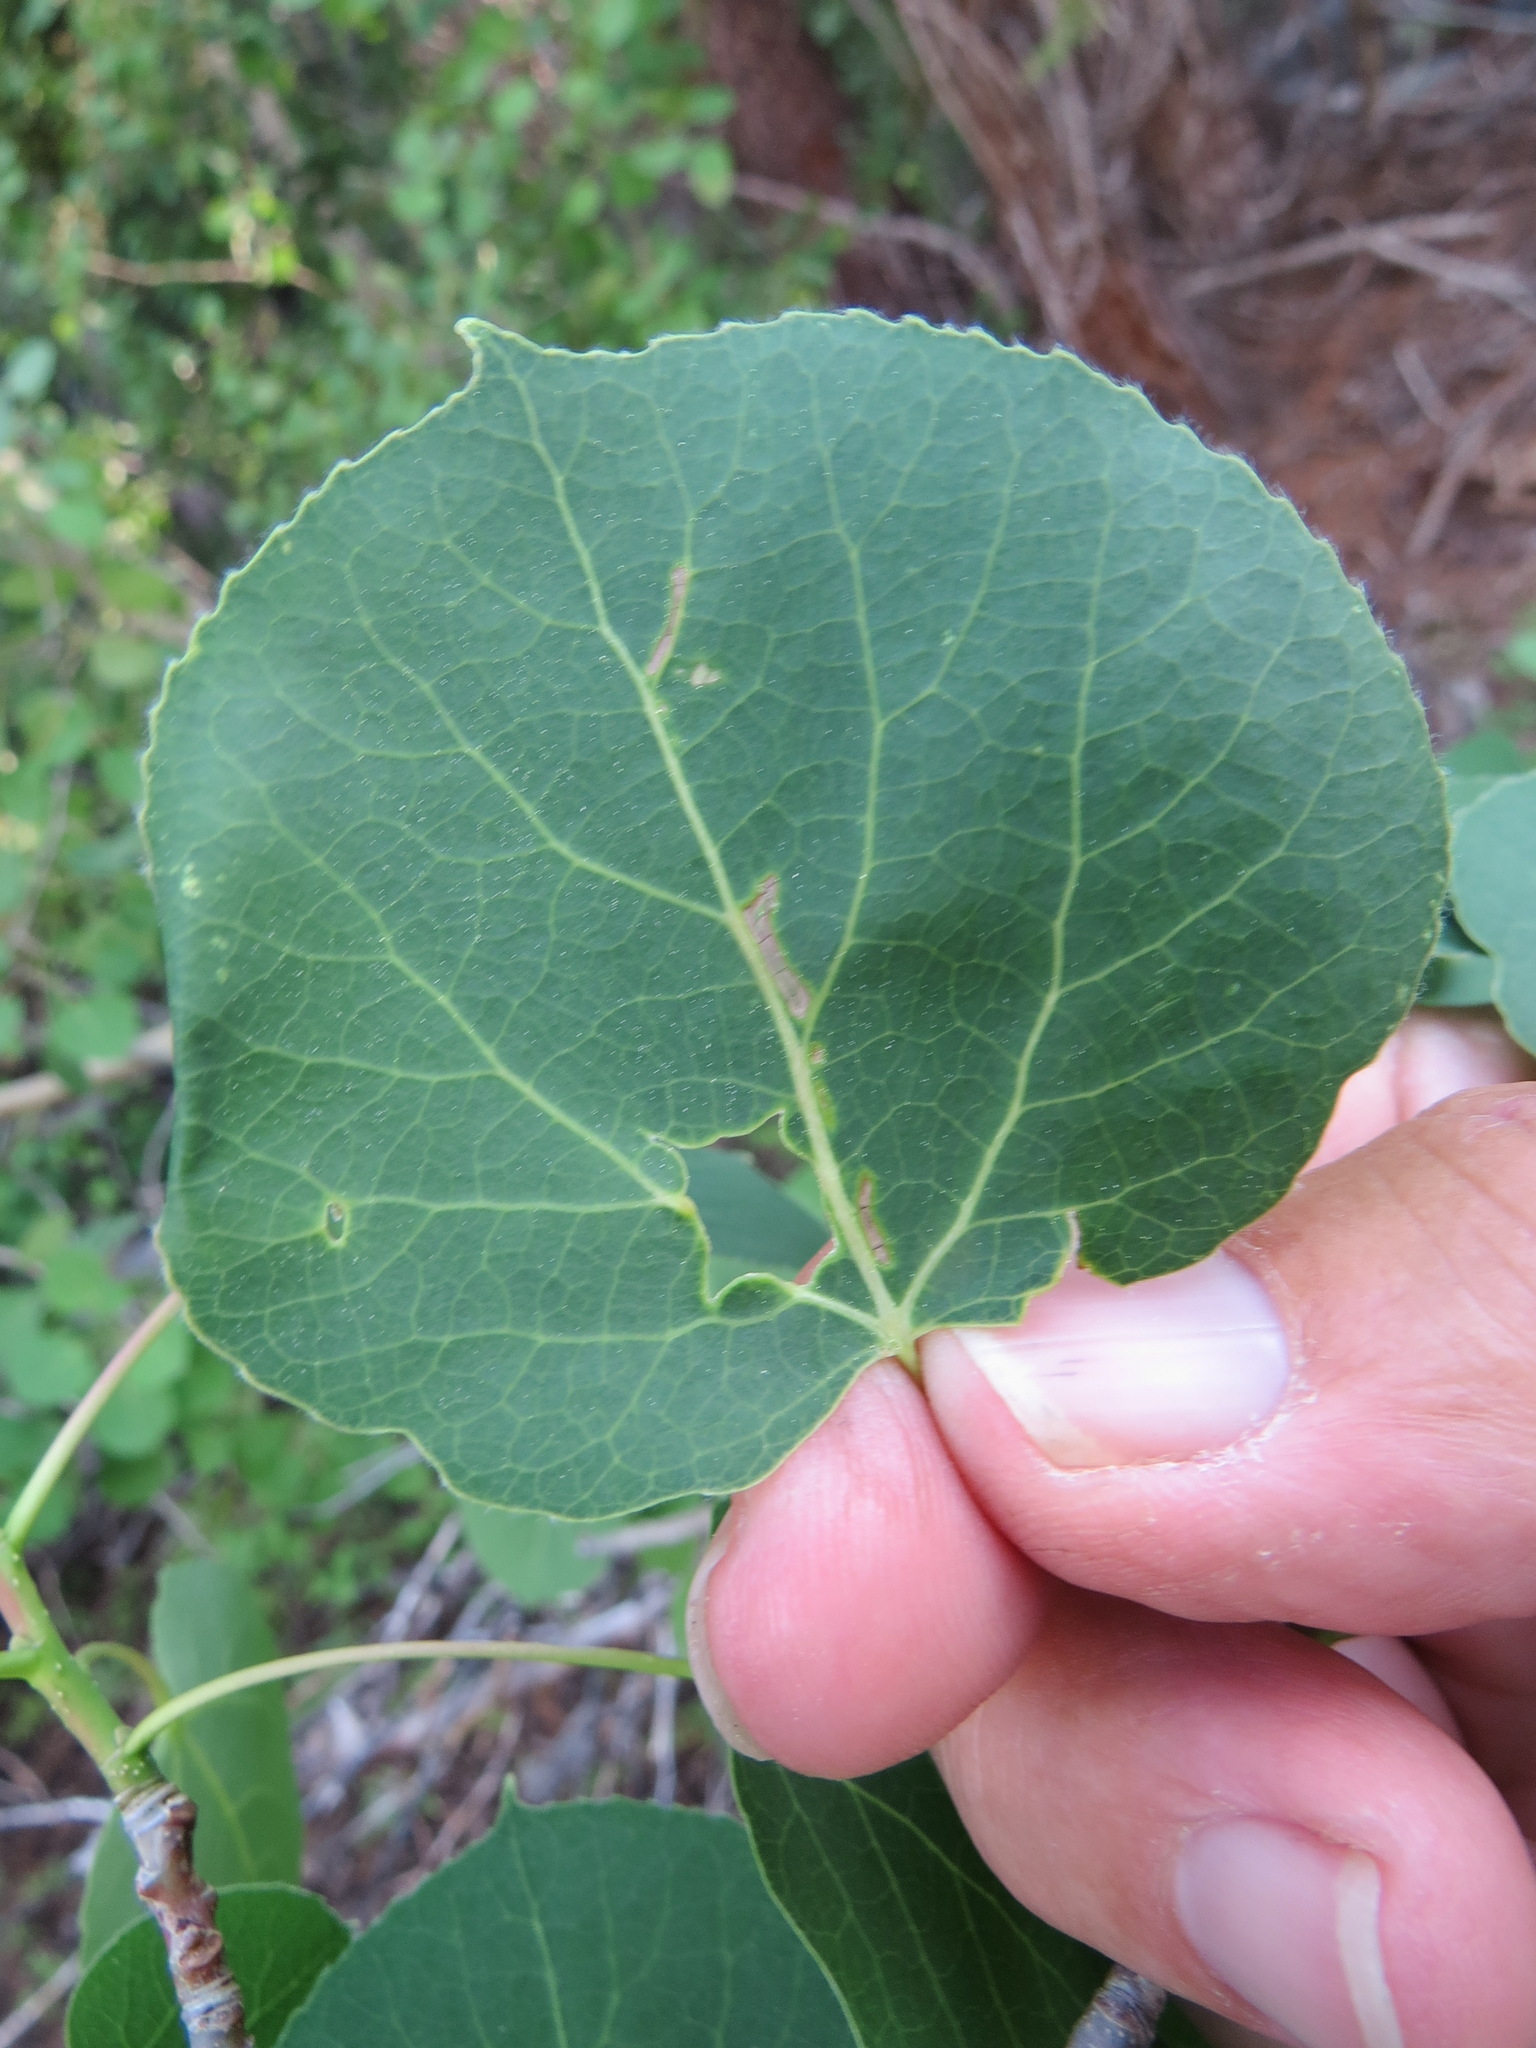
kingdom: Animalia
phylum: Arthropoda
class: Insecta
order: Lepidoptera
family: Gracillariidae
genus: Phyllocnistis
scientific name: Phyllocnistis populiella
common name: Aspen serpentine leafminer moth
